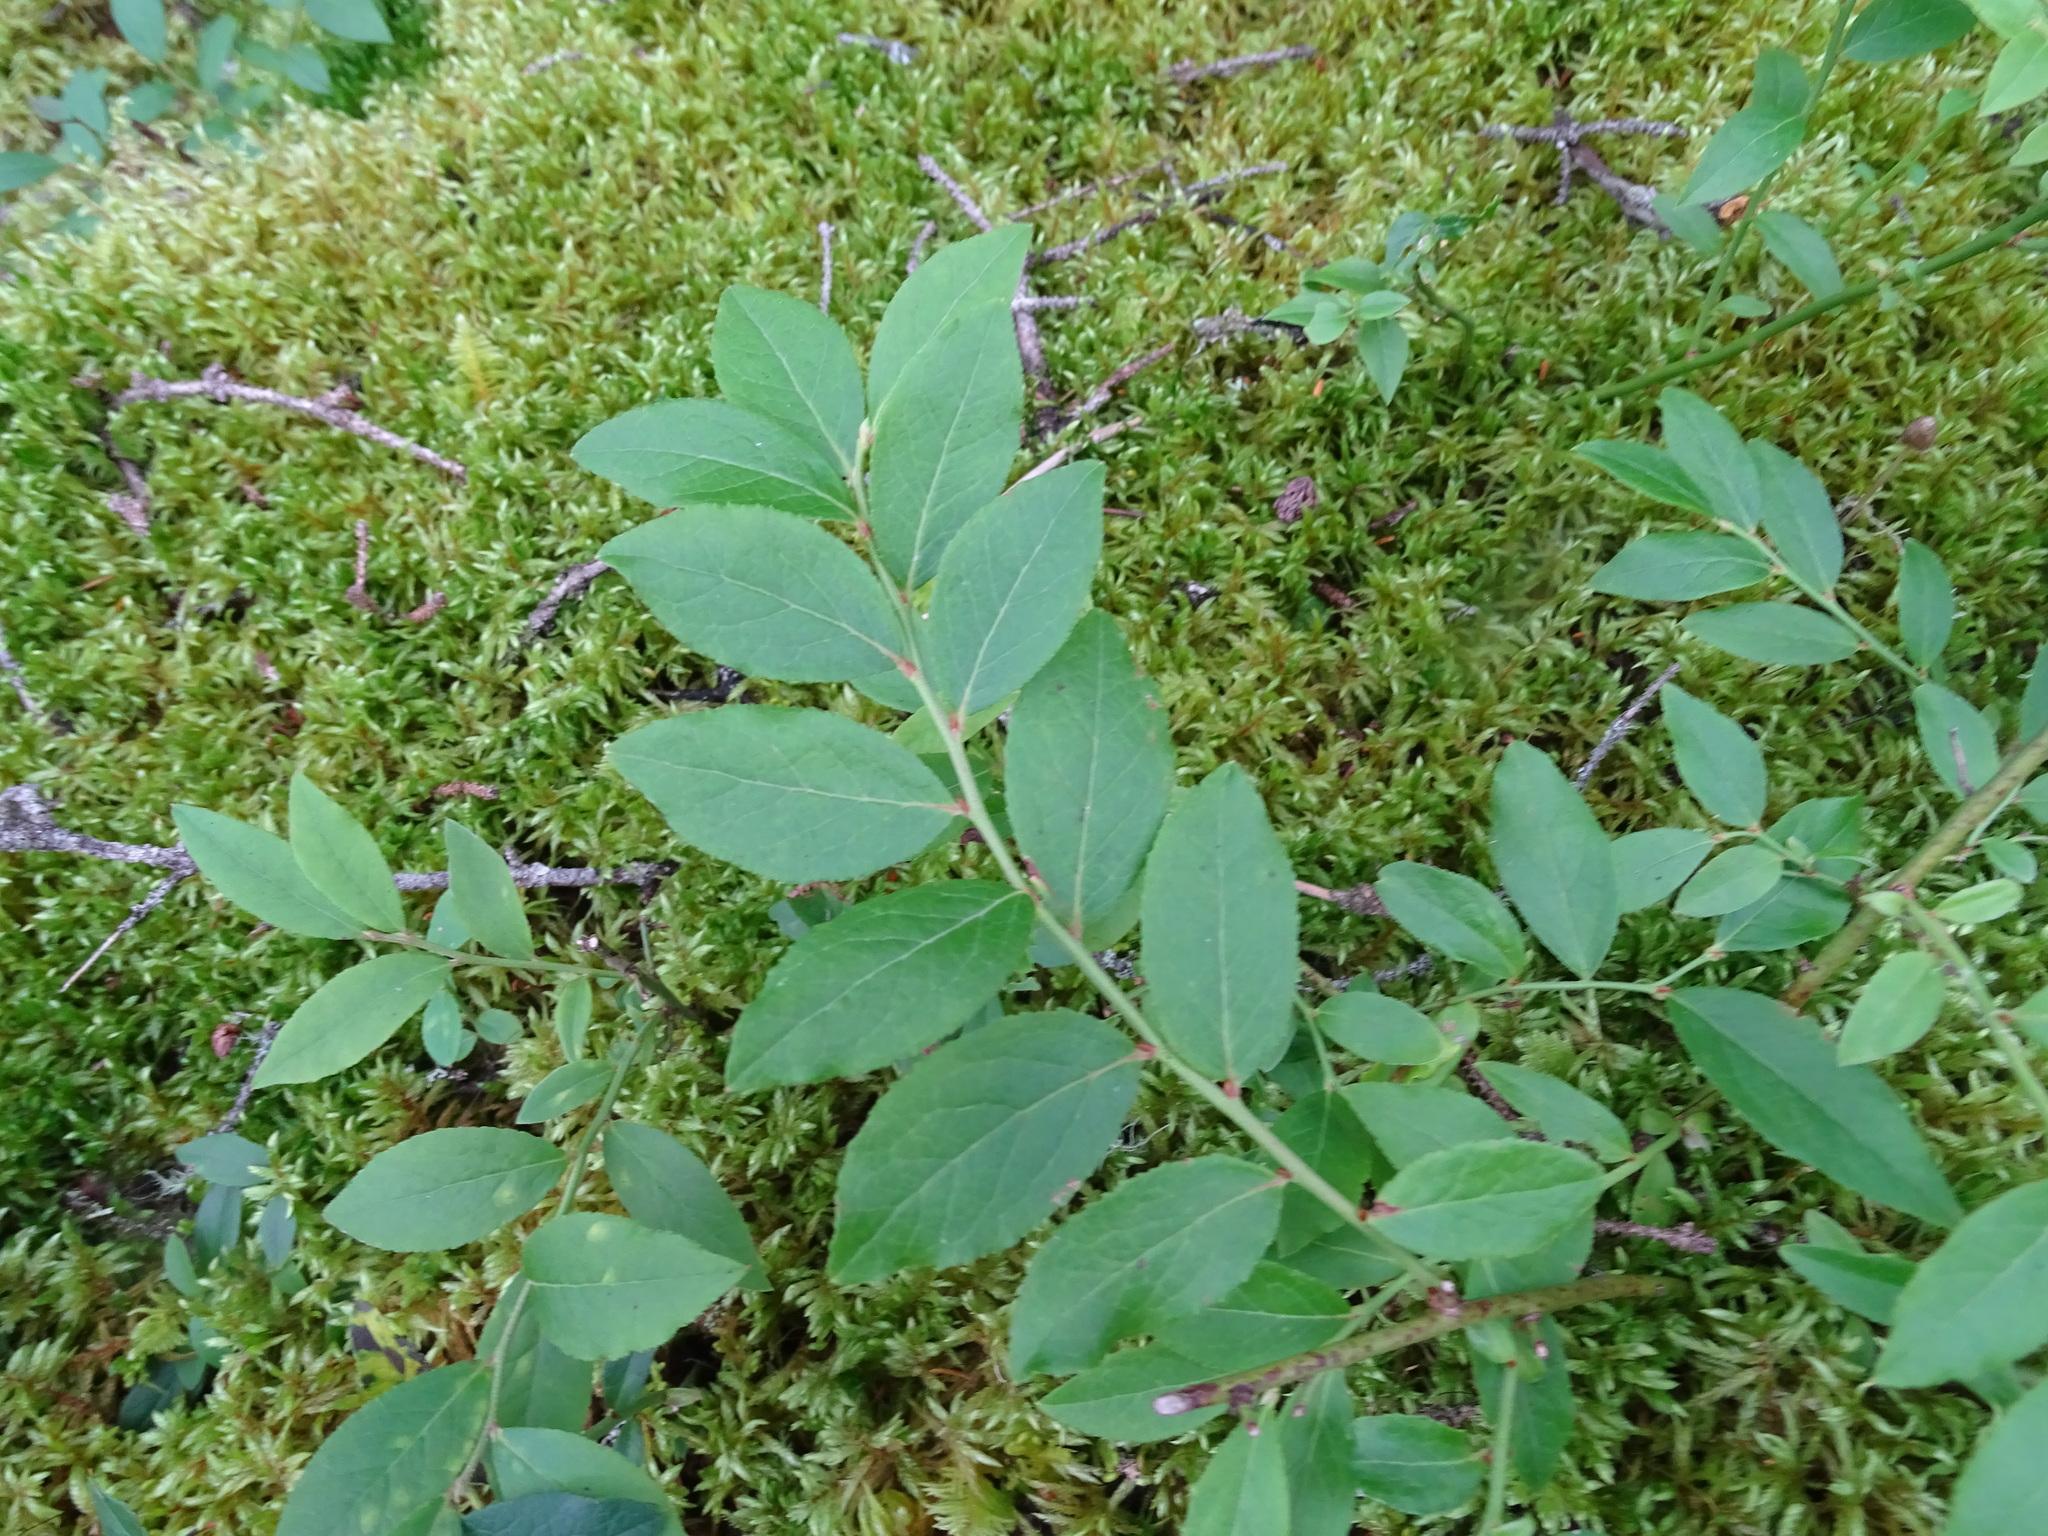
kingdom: Plantae
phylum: Tracheophyta
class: Magnoliopsida
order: Ericales
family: Ericaceae
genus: Vaccinium
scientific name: Vaccinium angustifolium
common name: Early lowbush blueberry
